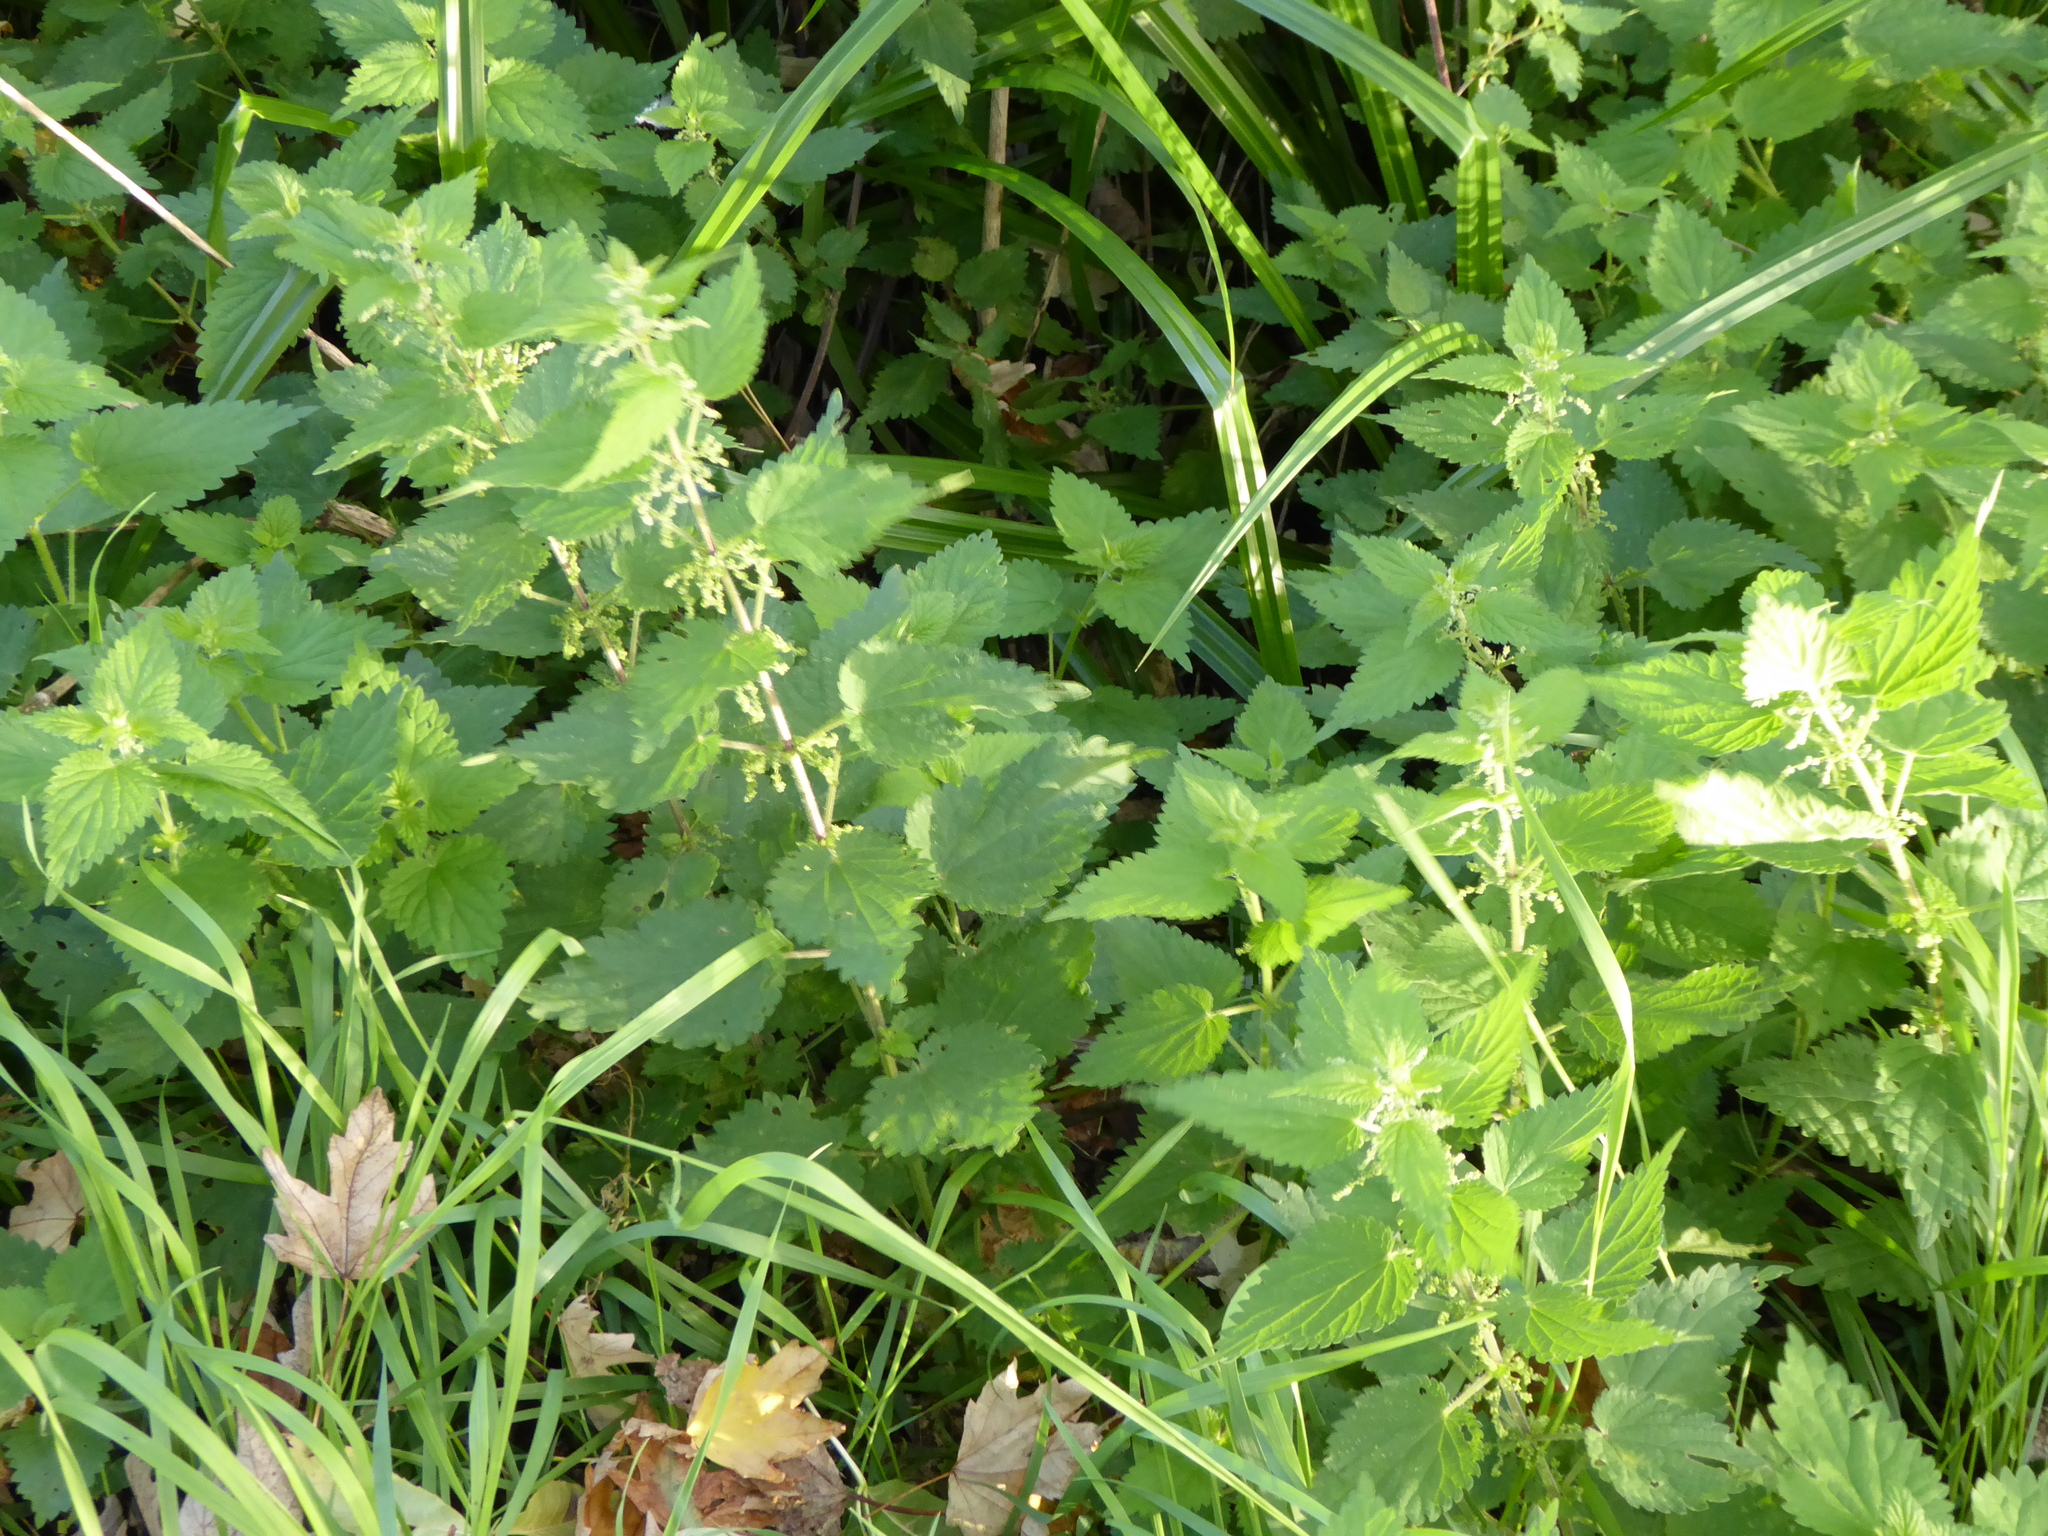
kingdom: Plantae
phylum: Tracheophyta
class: Magnoliopsida
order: Rosales
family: Urticaceae
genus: Urtica
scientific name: Urtica dioica
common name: Common nettle
